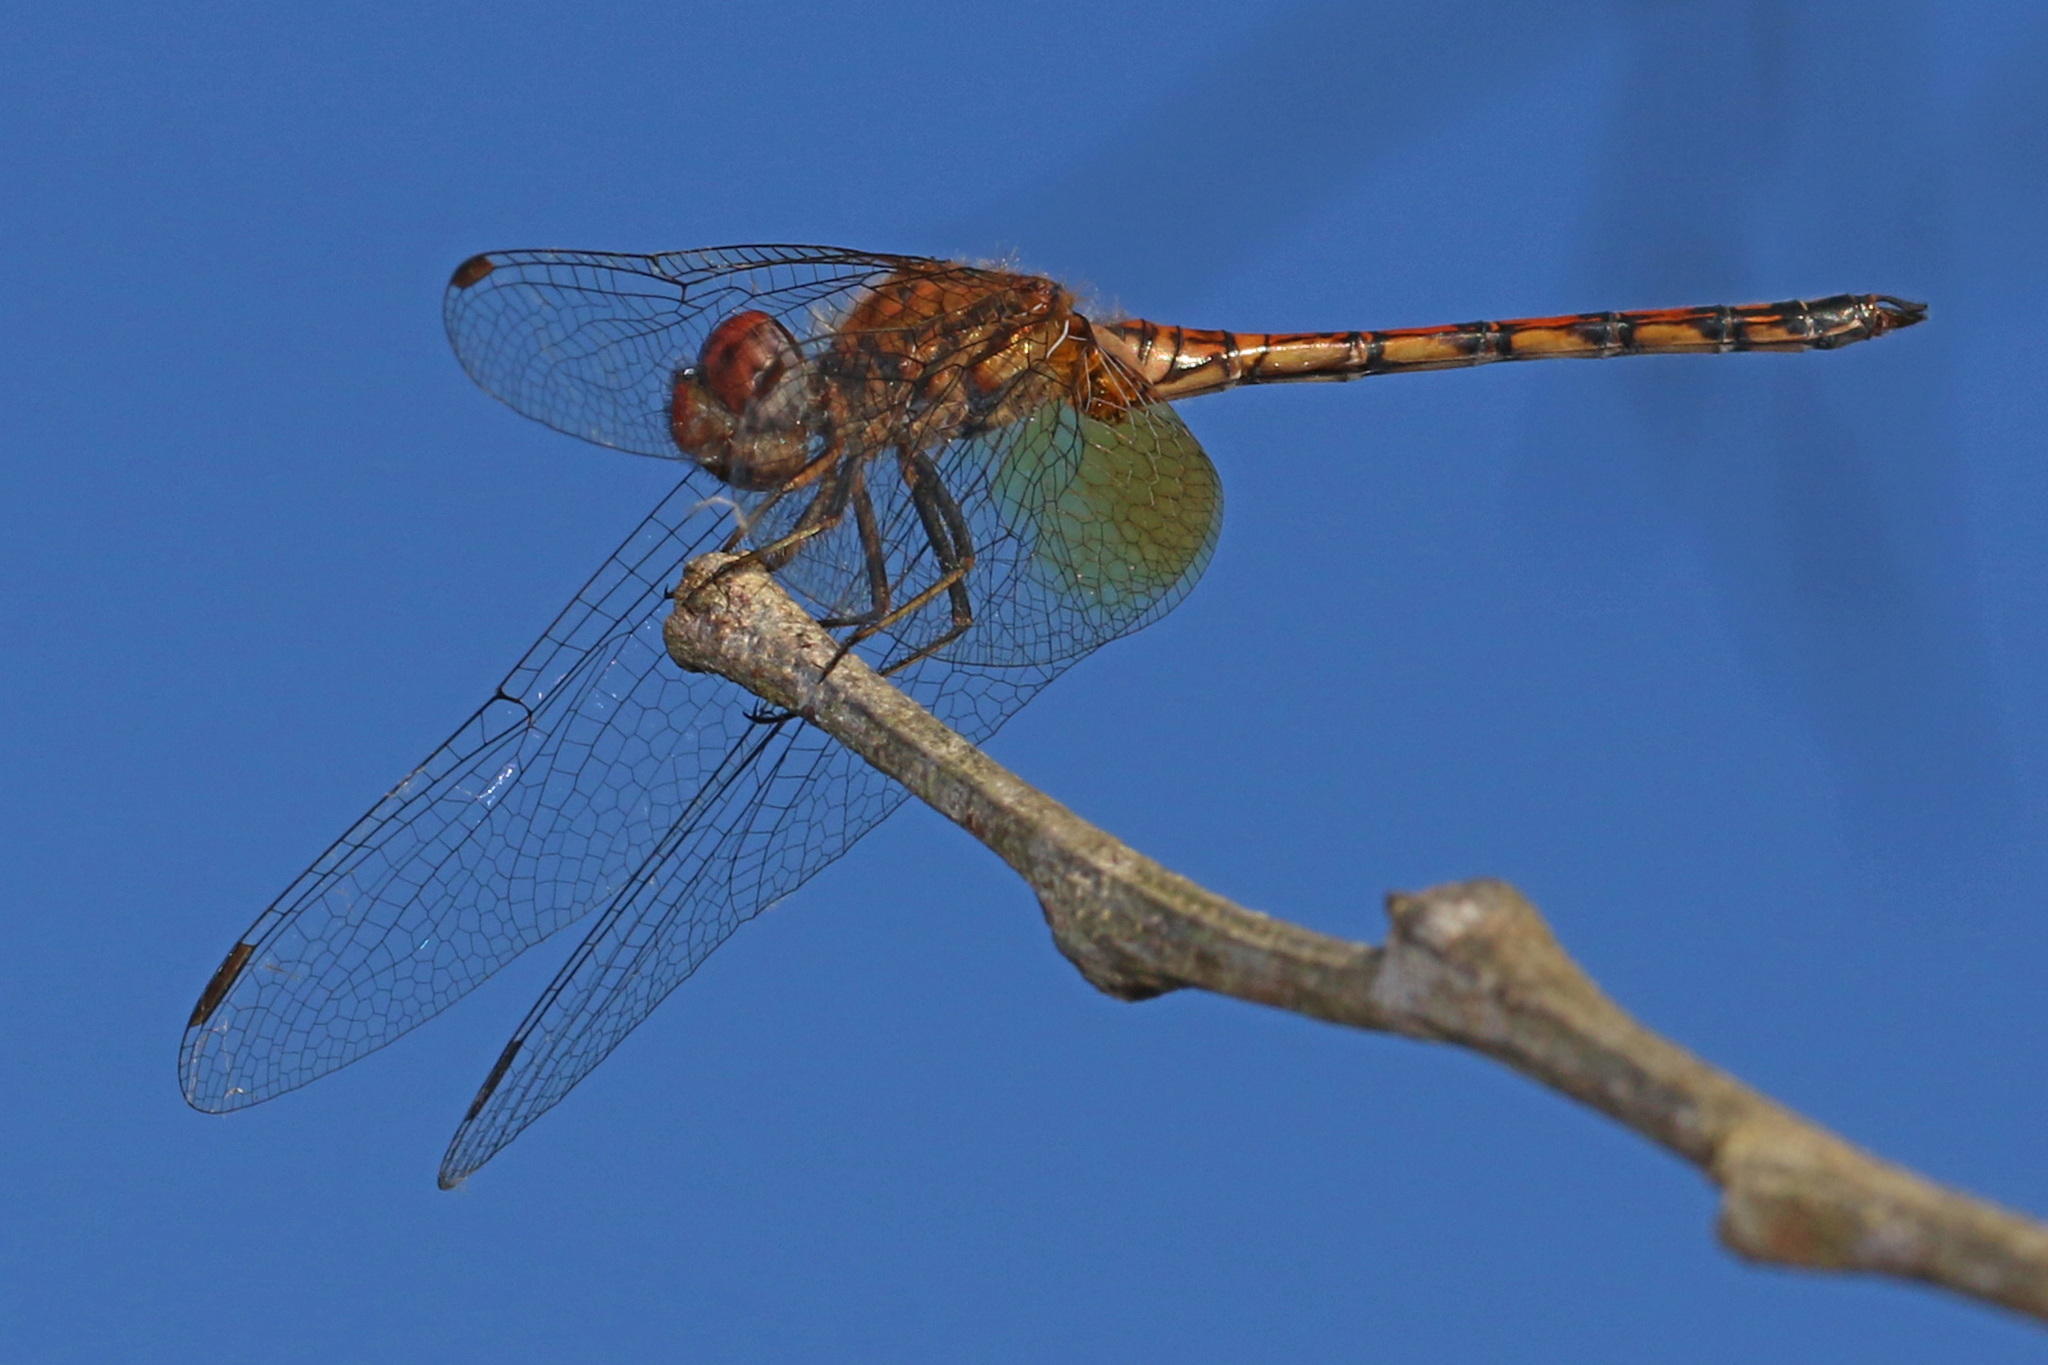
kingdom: Animalia
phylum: Arthropoda
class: Insecta
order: Odonata
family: Libellulidae
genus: Trithemis
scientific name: Trithemis werneri
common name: Elegant dropwing
